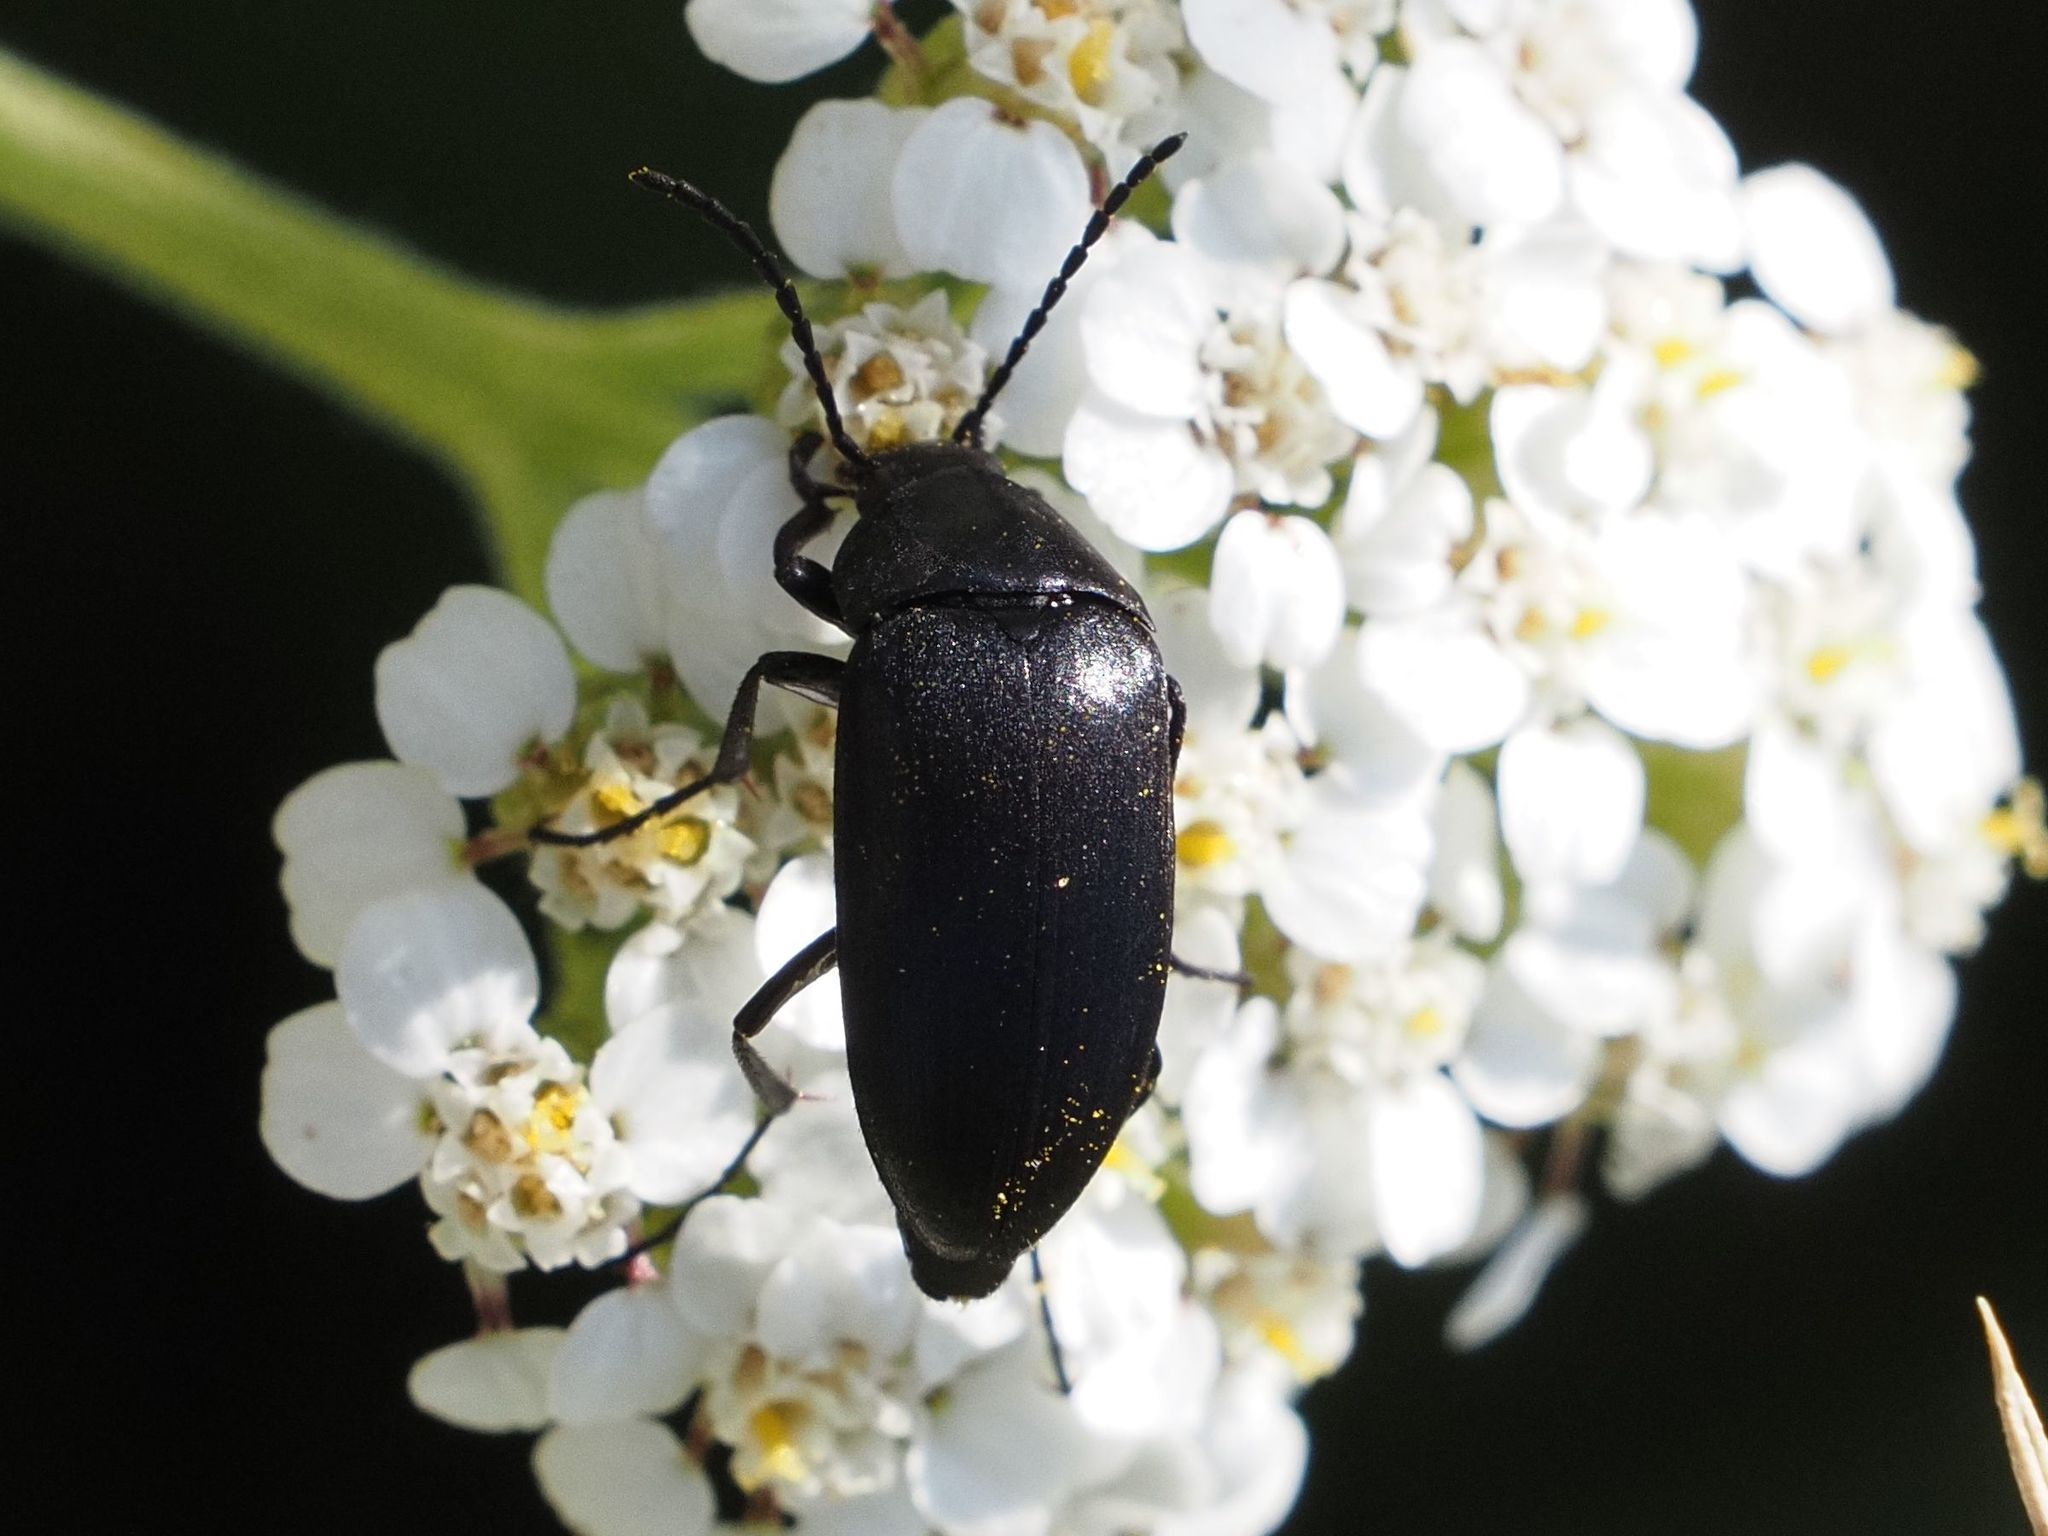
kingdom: Animalia
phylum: Arthropoda
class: Insecta
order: Coleoptera
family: Tenebrionidae
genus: Podonta
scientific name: Podonta nigrita
